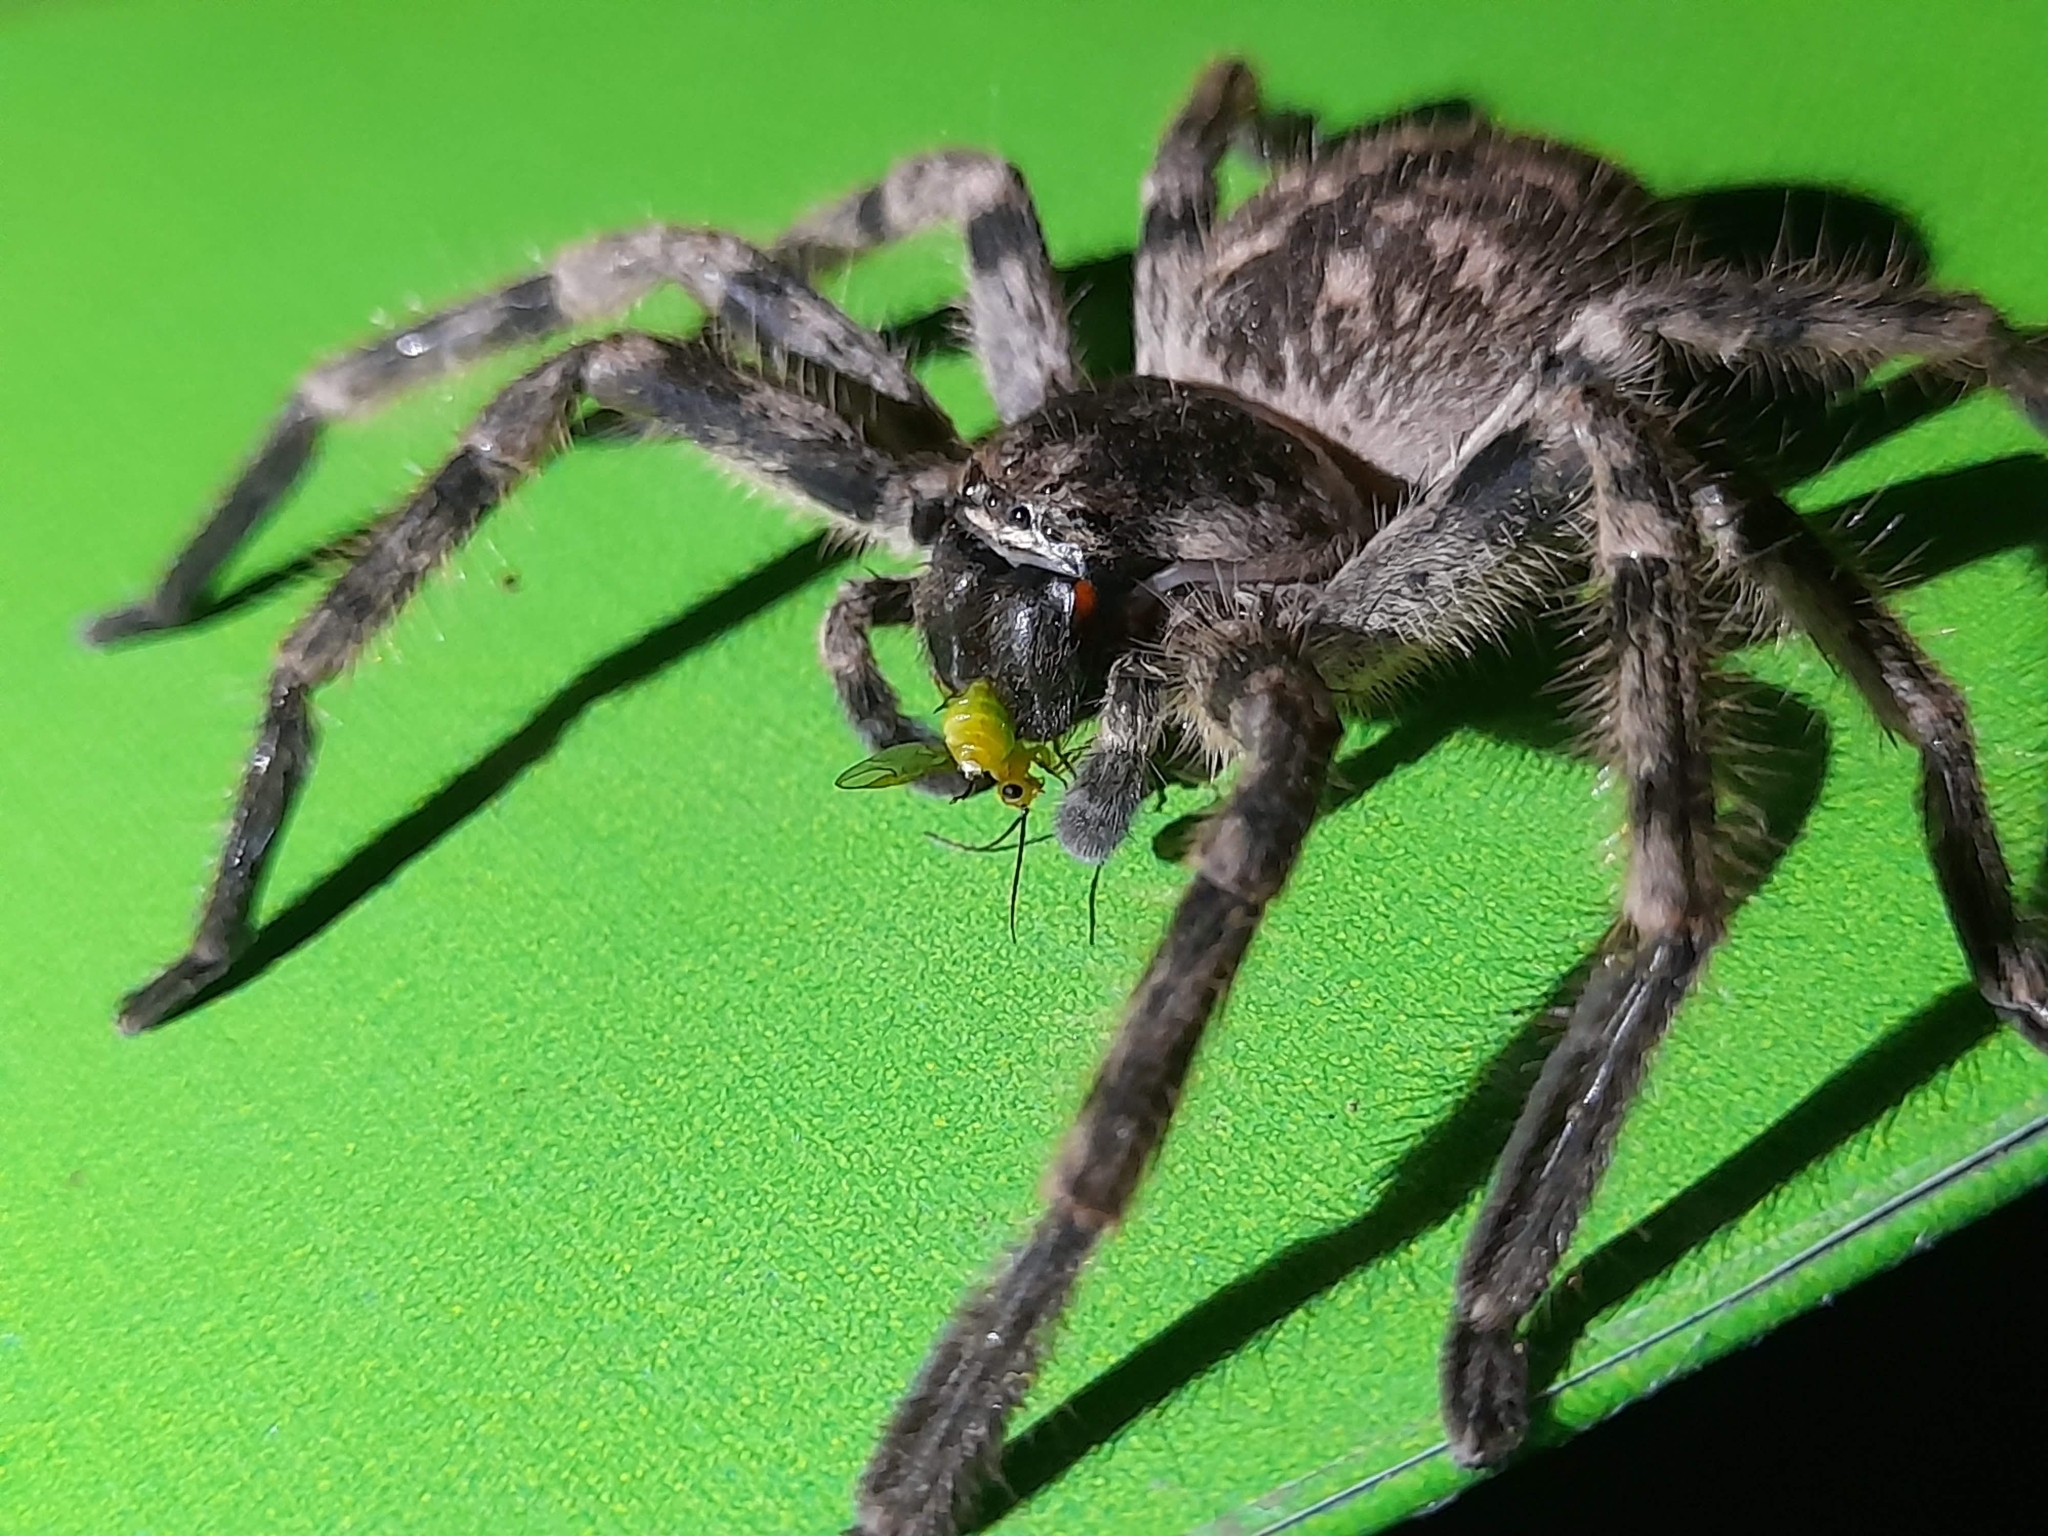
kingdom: Animalia
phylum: Arthropoda
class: Arachnida
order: Araneae
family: Sparassidae
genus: Polybetes
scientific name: Polybetes pythagoricus
